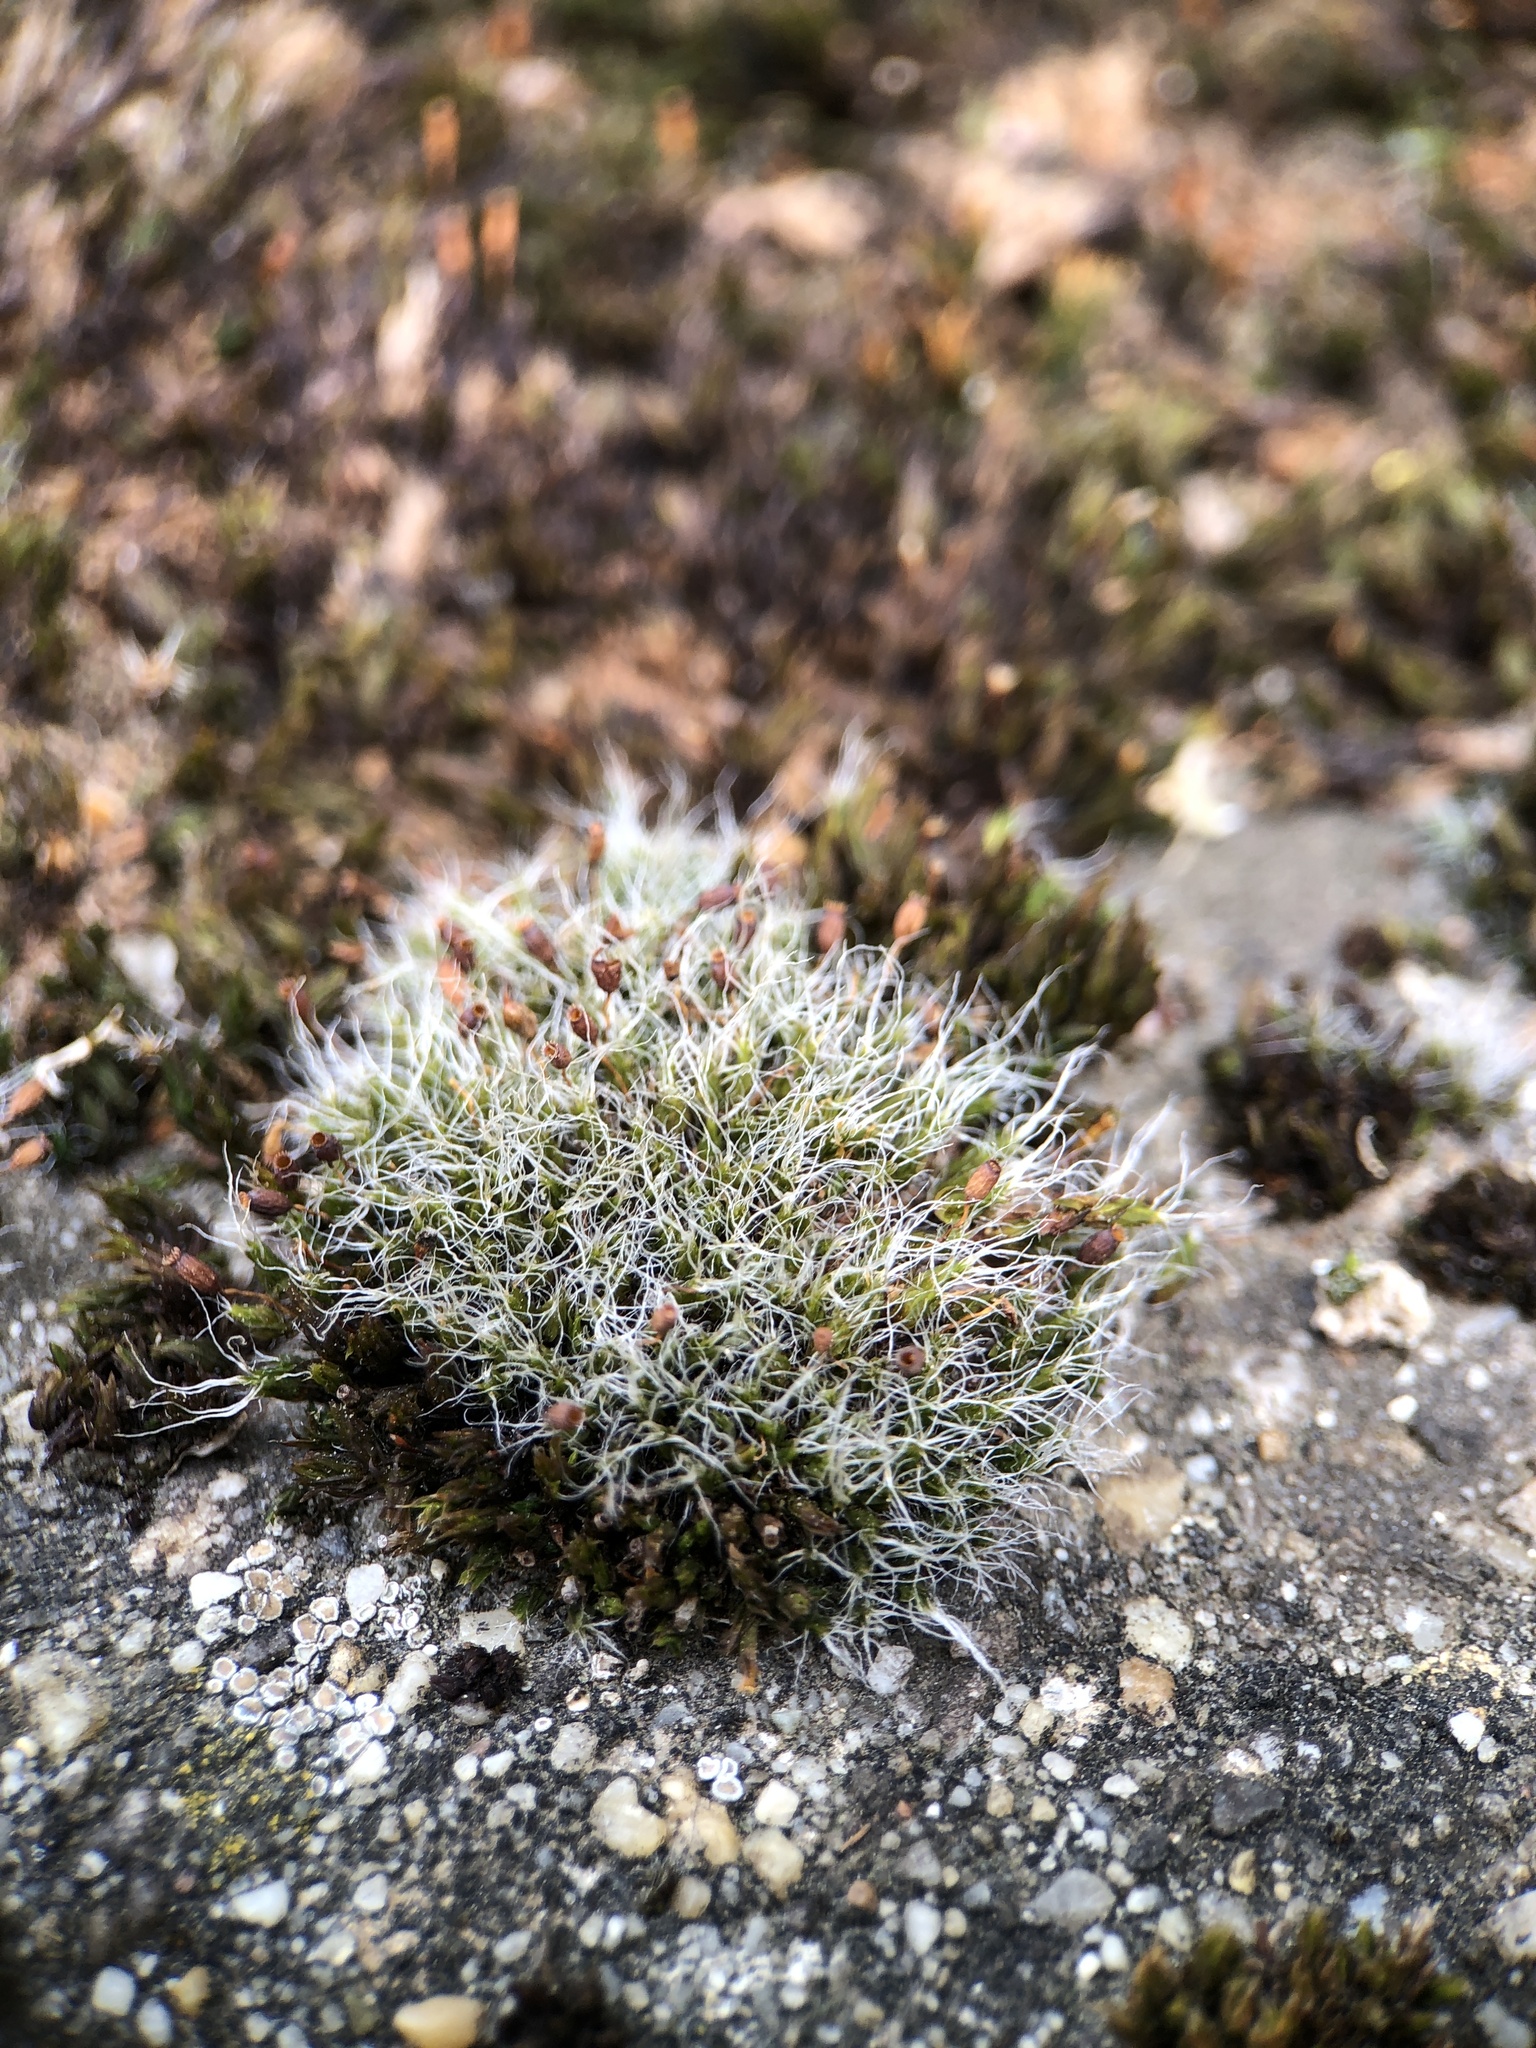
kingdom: Plantae
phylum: Bryophyta
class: Bryopsida
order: Grimmiales
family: Grimmiaceae
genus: Grimmia
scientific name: Grimmia pulvinata
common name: Grey-cushioned grimmia
